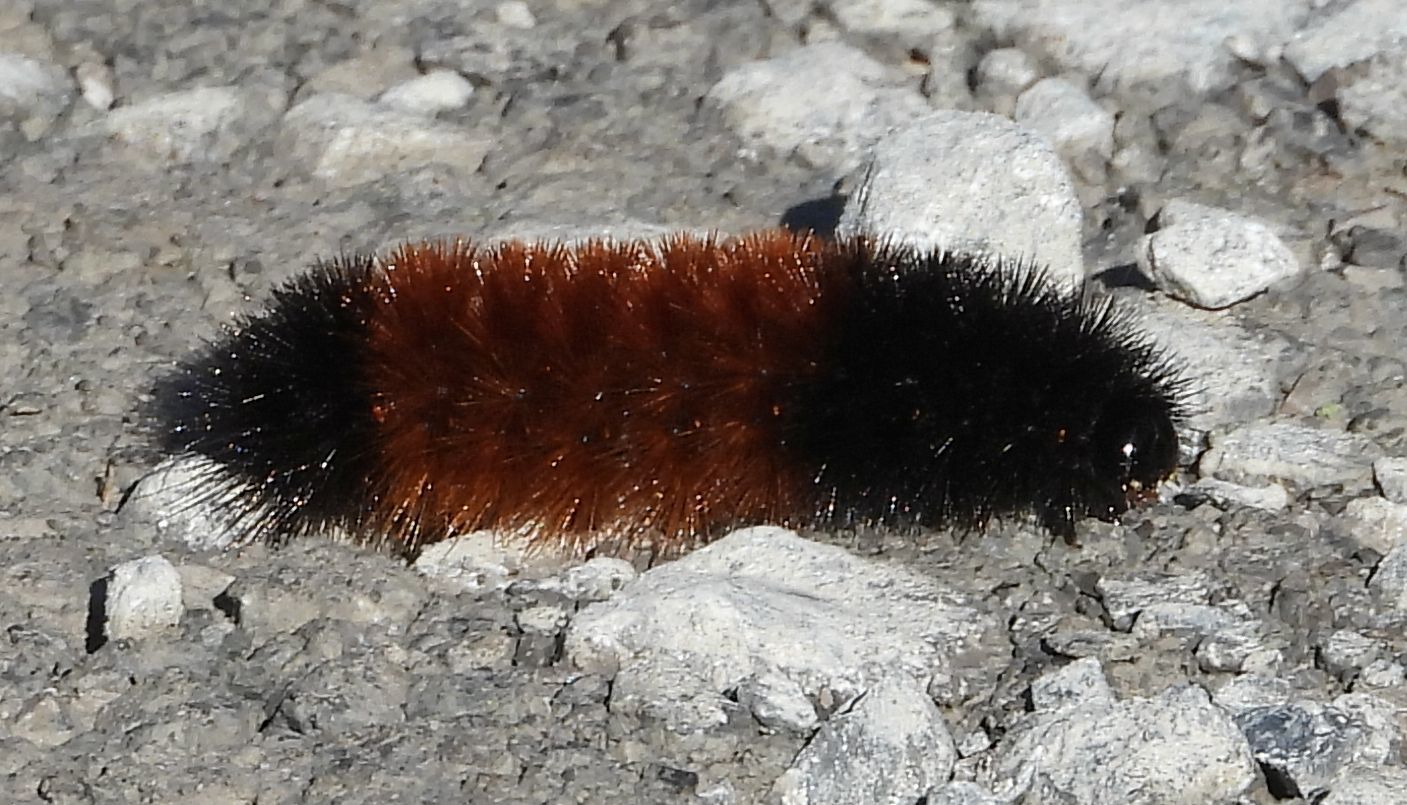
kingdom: Animalia
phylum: Arthropoda
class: Insecta
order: Lepidoptera
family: Erebidae
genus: Pyrrharctia
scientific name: Pyrrharctia isabella
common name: Isabella tiger moth
